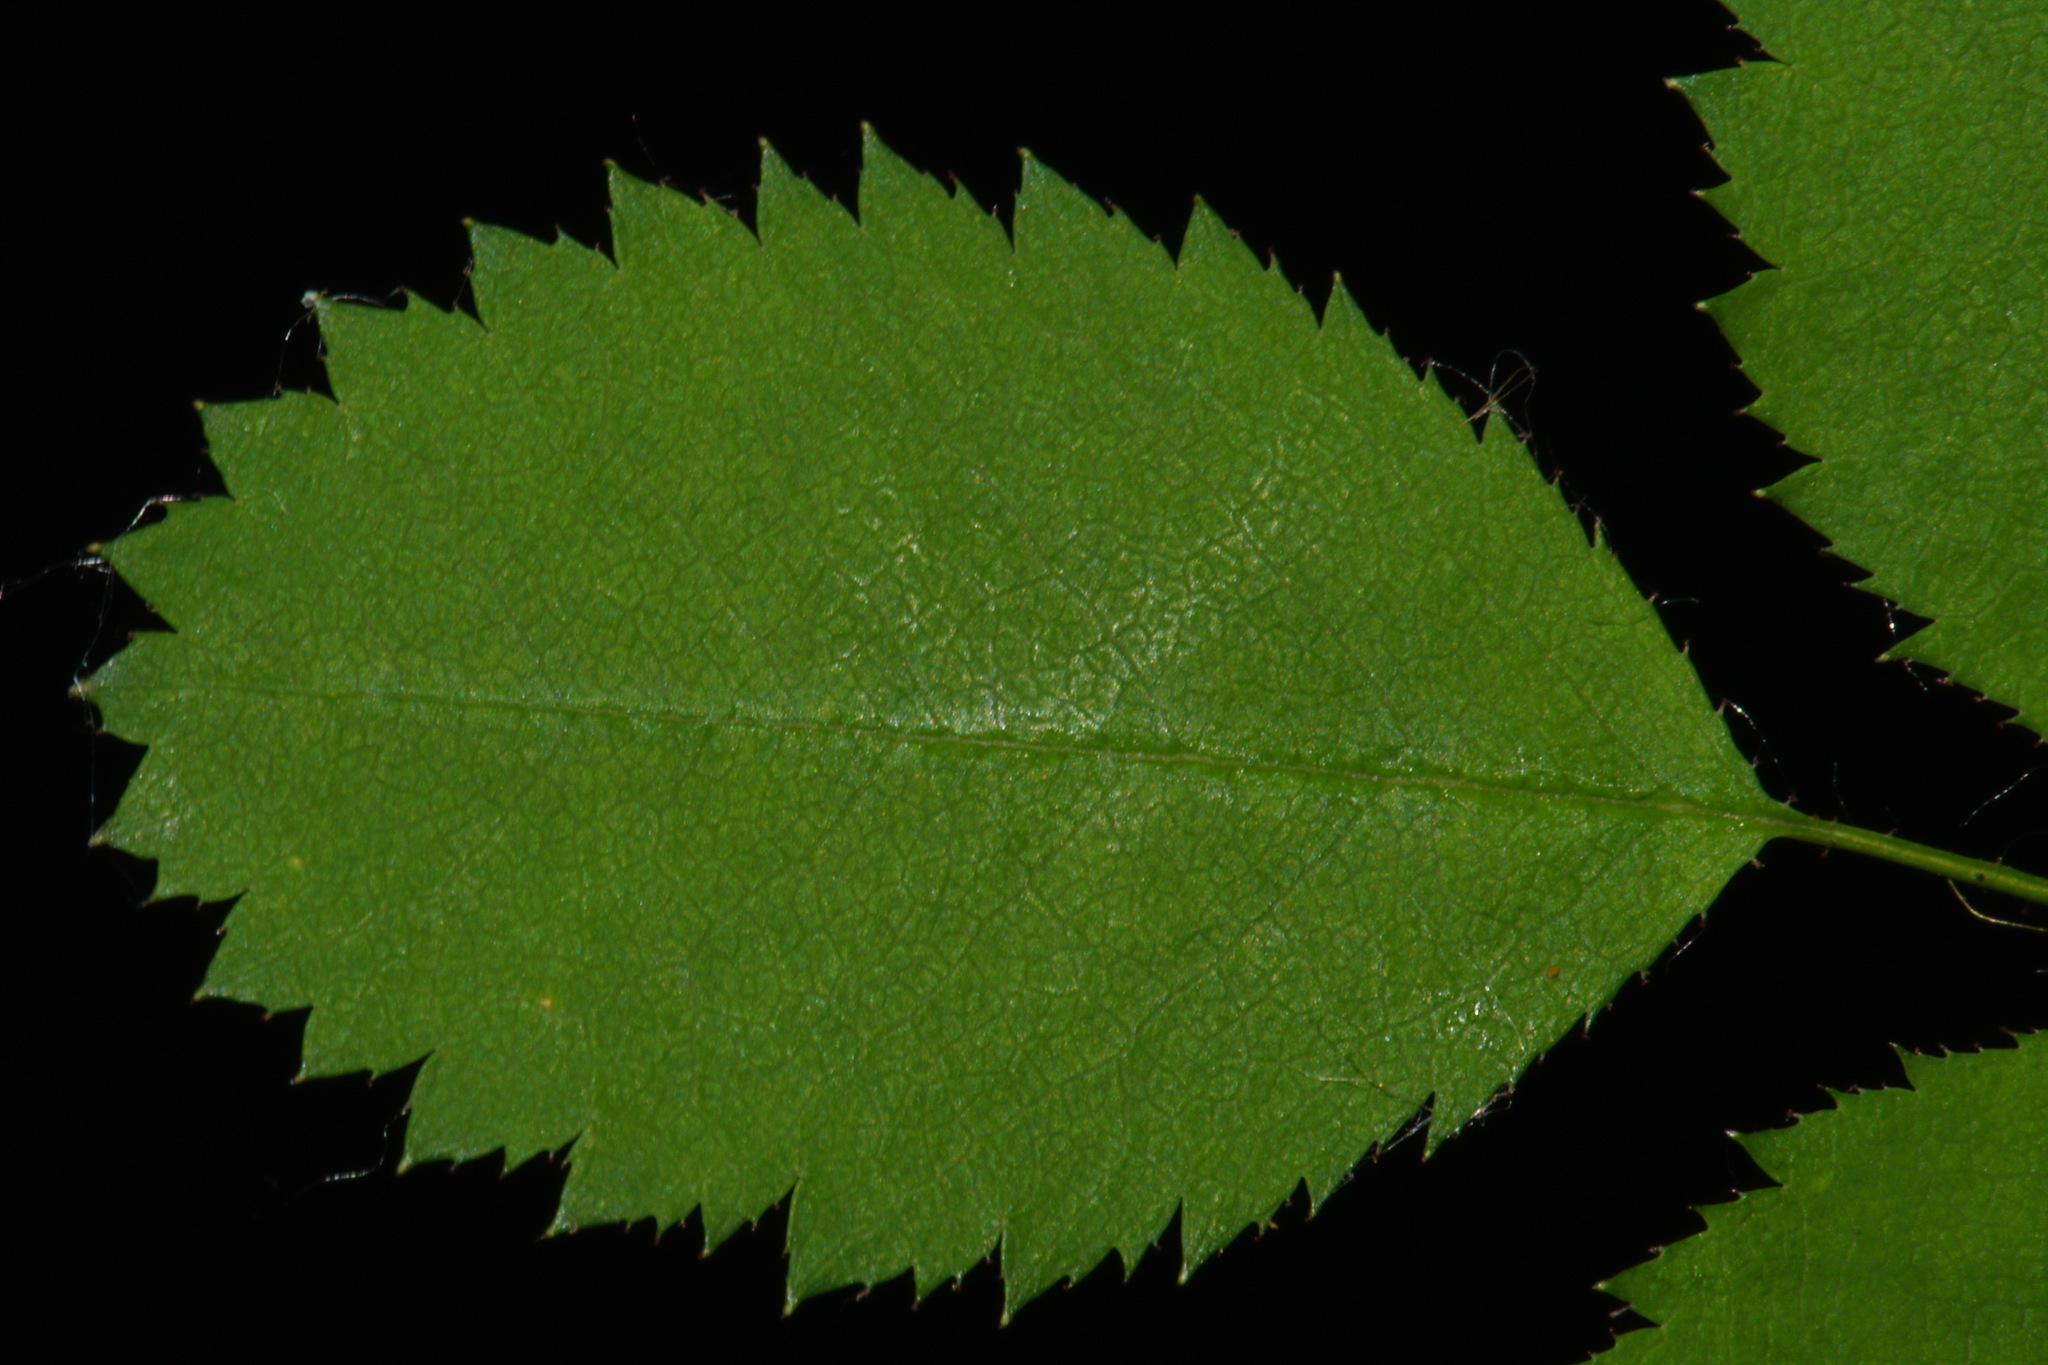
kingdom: Plantae
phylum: Tracheophyta
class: Magnoliopsida
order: Rosales
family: Rosaceae
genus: Rosa
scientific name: Rosa gymnocarpa
